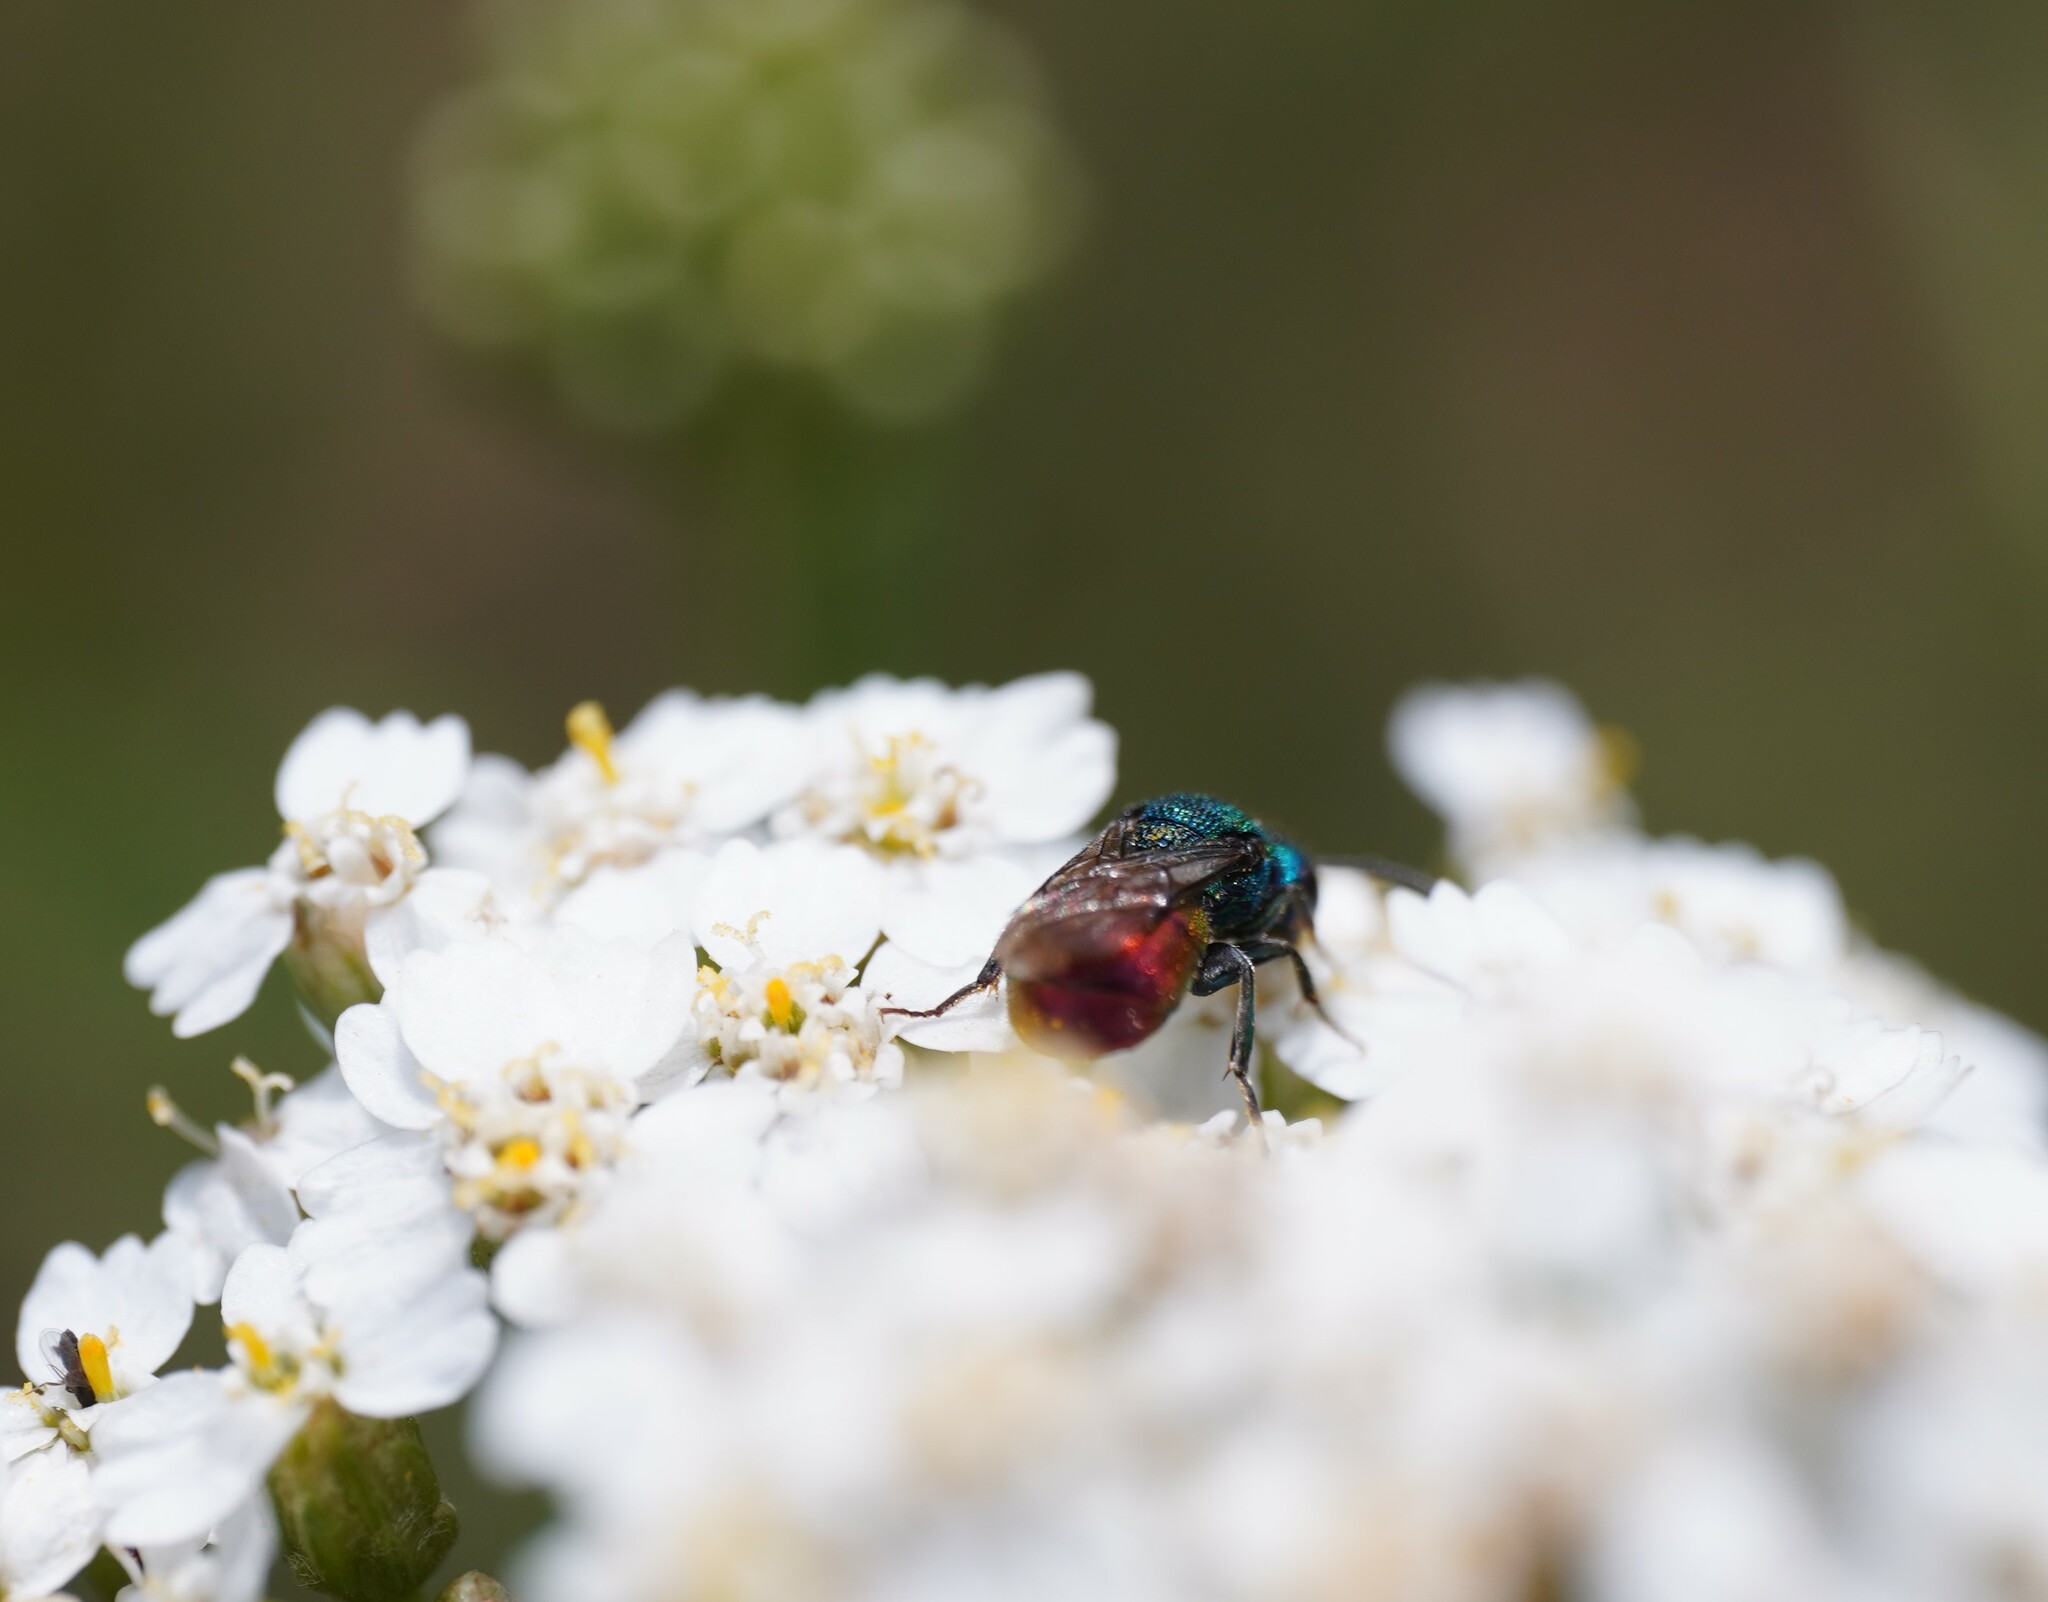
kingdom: Animalia
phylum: Arthropoda
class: Insecta
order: Hymenoptera
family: Chrysididae
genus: Hedychrum
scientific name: Hedychrum
